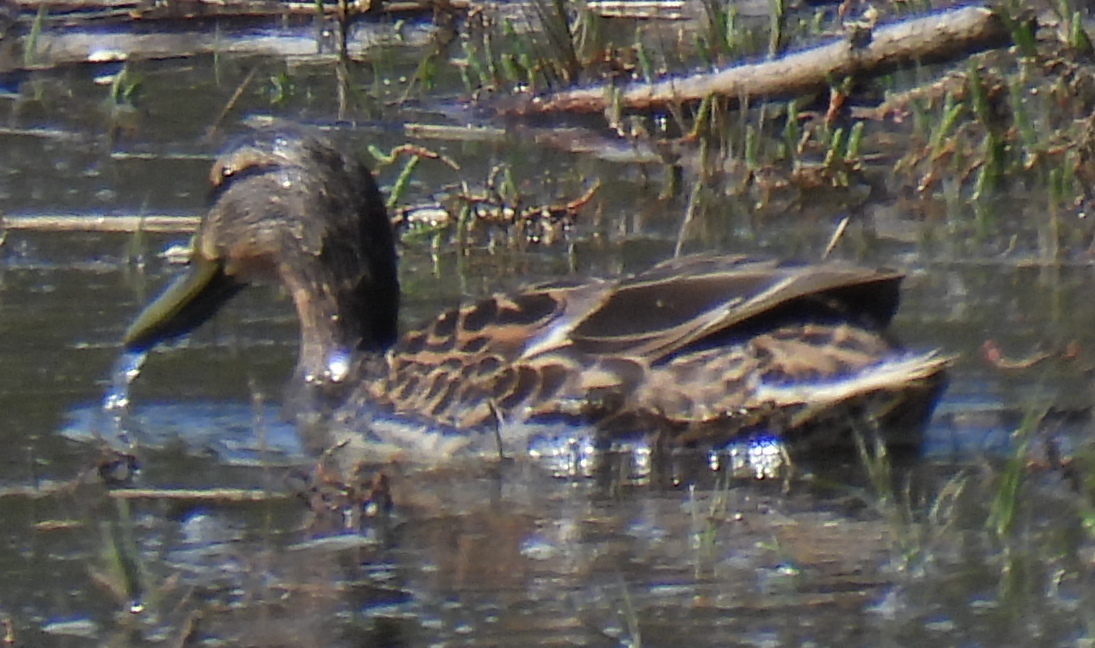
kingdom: Animalia
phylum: Chordata
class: Aves
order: Anseriformes
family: Anatidae
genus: Anas
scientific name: Anas platyrhynchos
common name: Mallard
